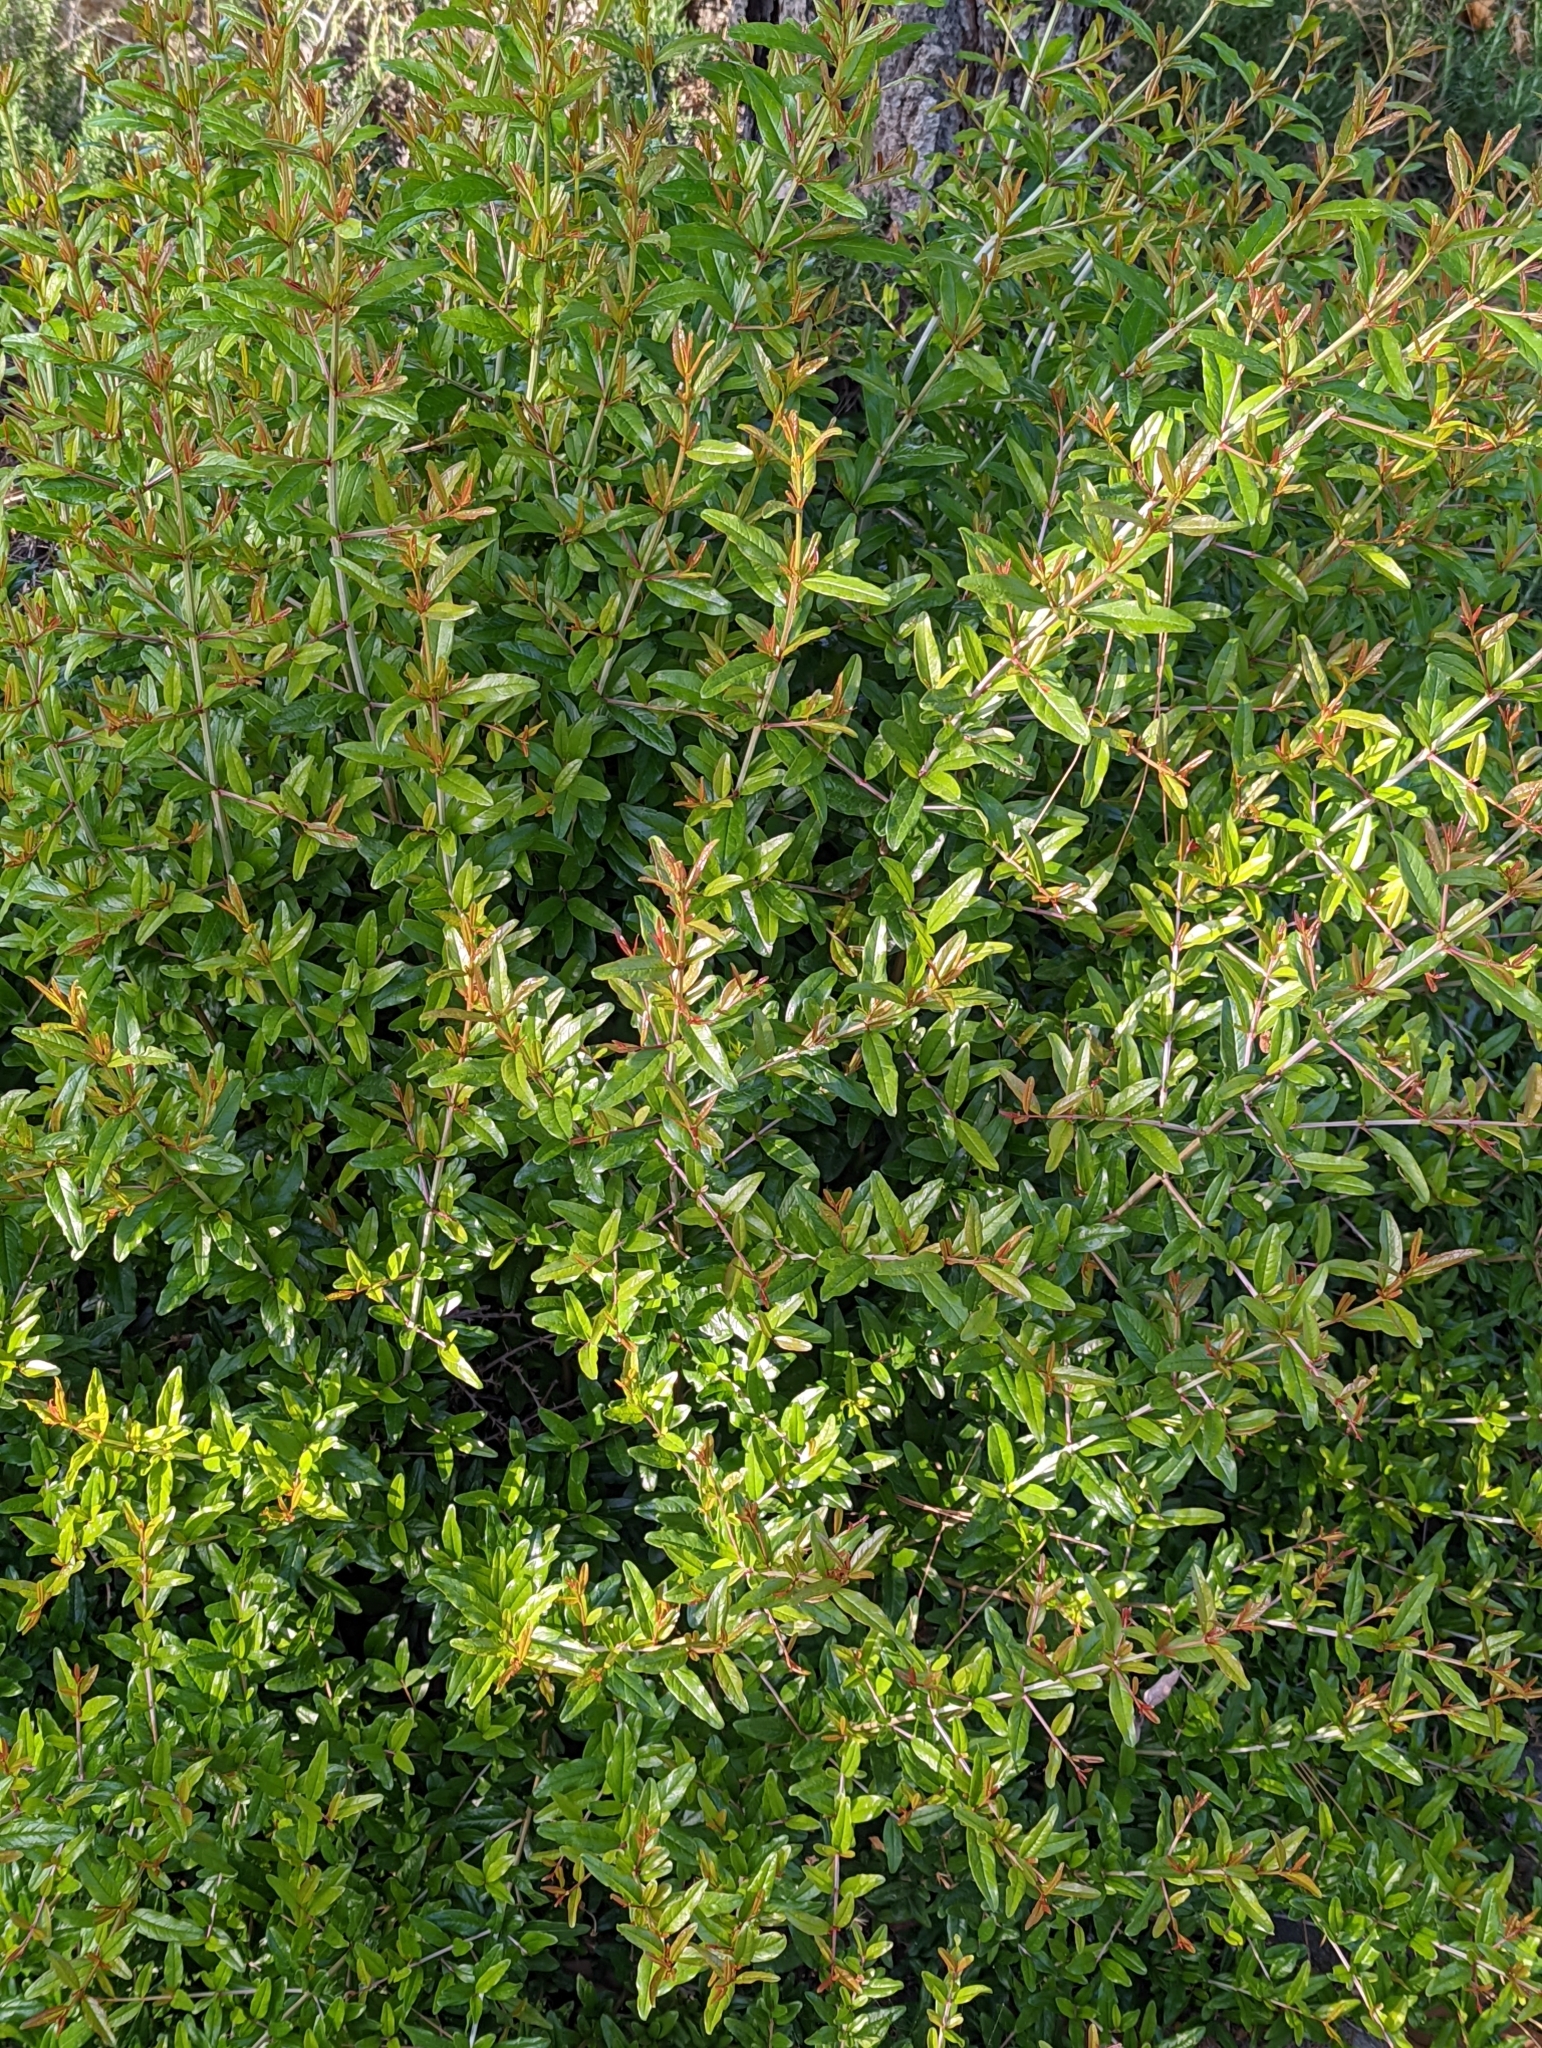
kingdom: Plantae
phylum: Tracheophyta
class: Magnoliopsida
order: Myrtales
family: Lythraceae
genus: Punica
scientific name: Punica granatum
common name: Pomegranate
